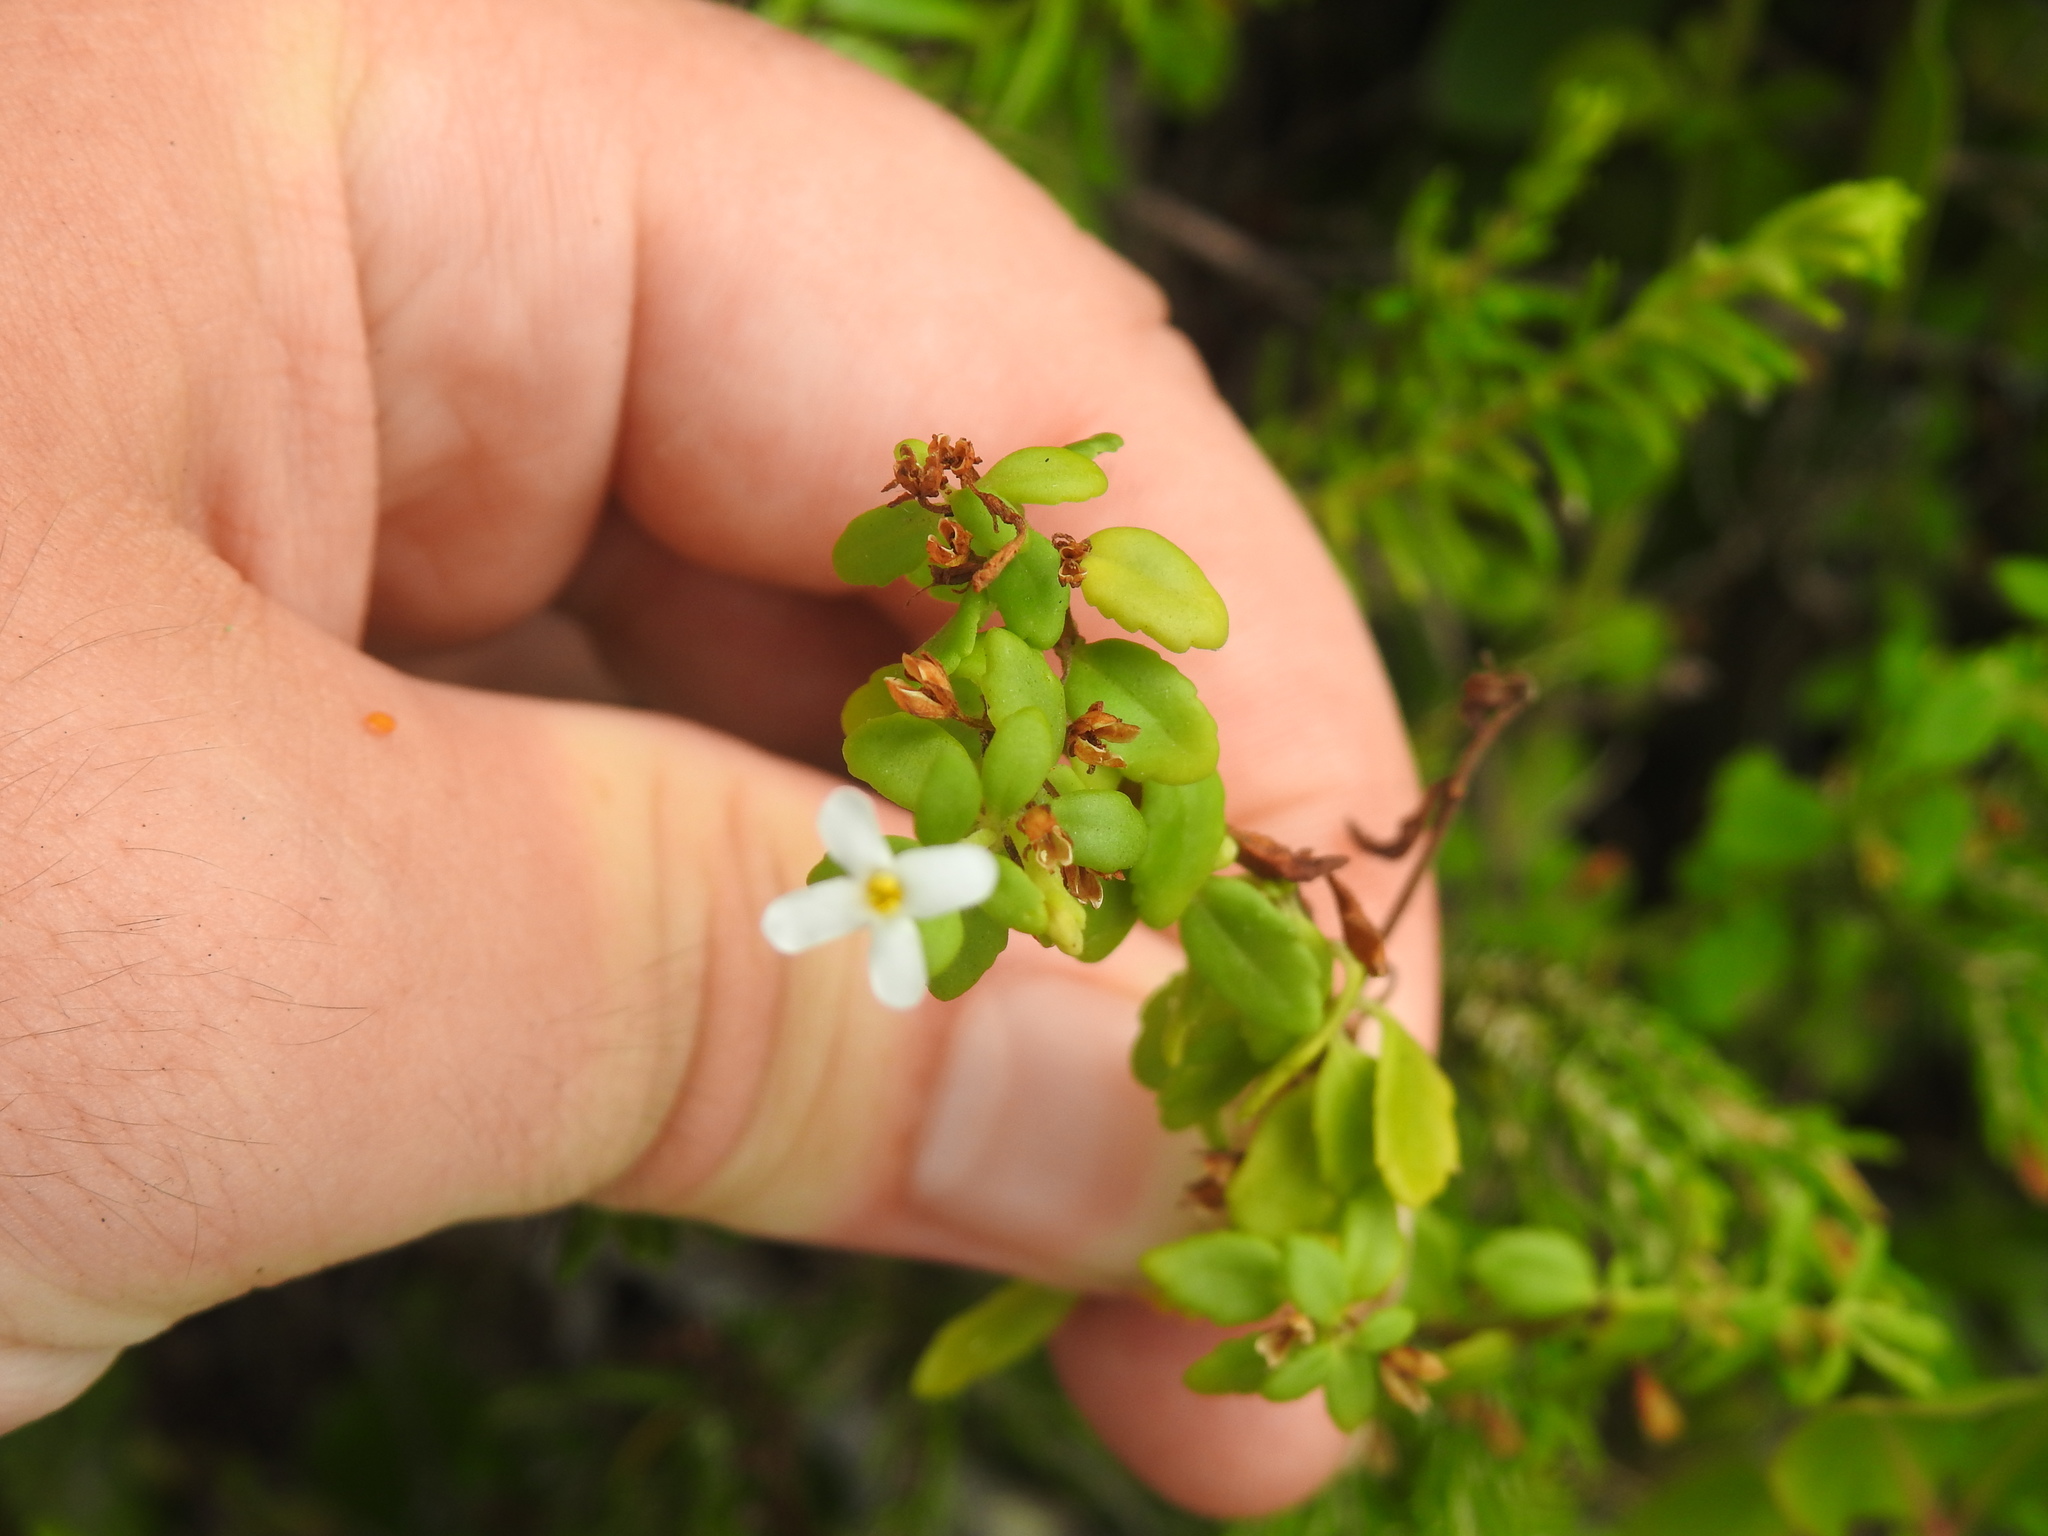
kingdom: Plantae
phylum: Tracheophyta
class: Magnoliopsida
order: Lamiales
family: Scrophulariaceae
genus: Chaenostoma
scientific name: Chaenostoma integrifolium
